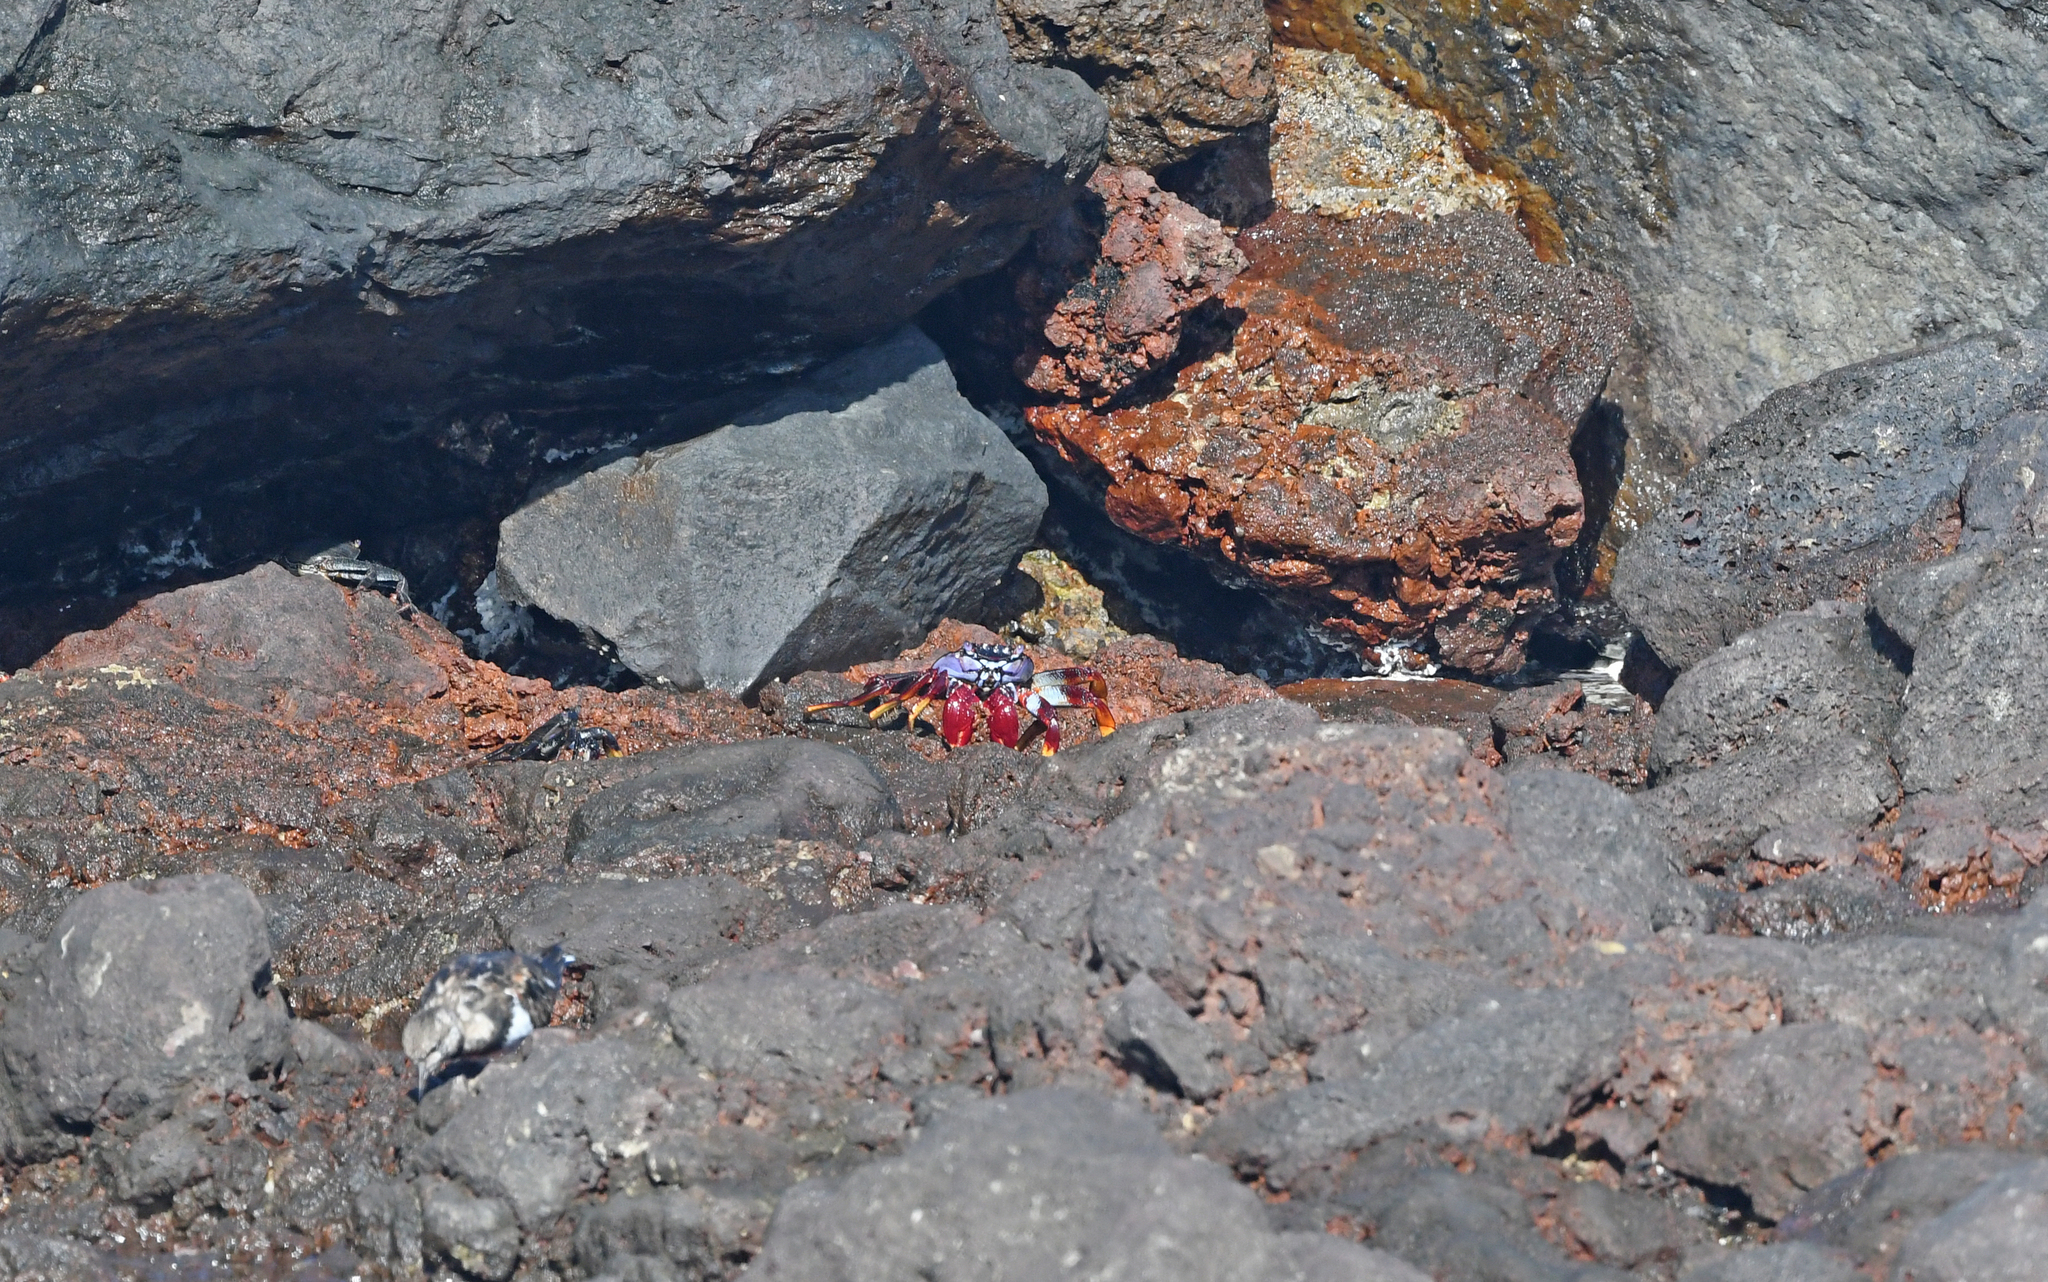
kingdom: Animalia
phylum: Arthropoda
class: Malacostraca
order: Decapoda
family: Grapsidae
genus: Grapsus
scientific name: Grapsus adscensionis
